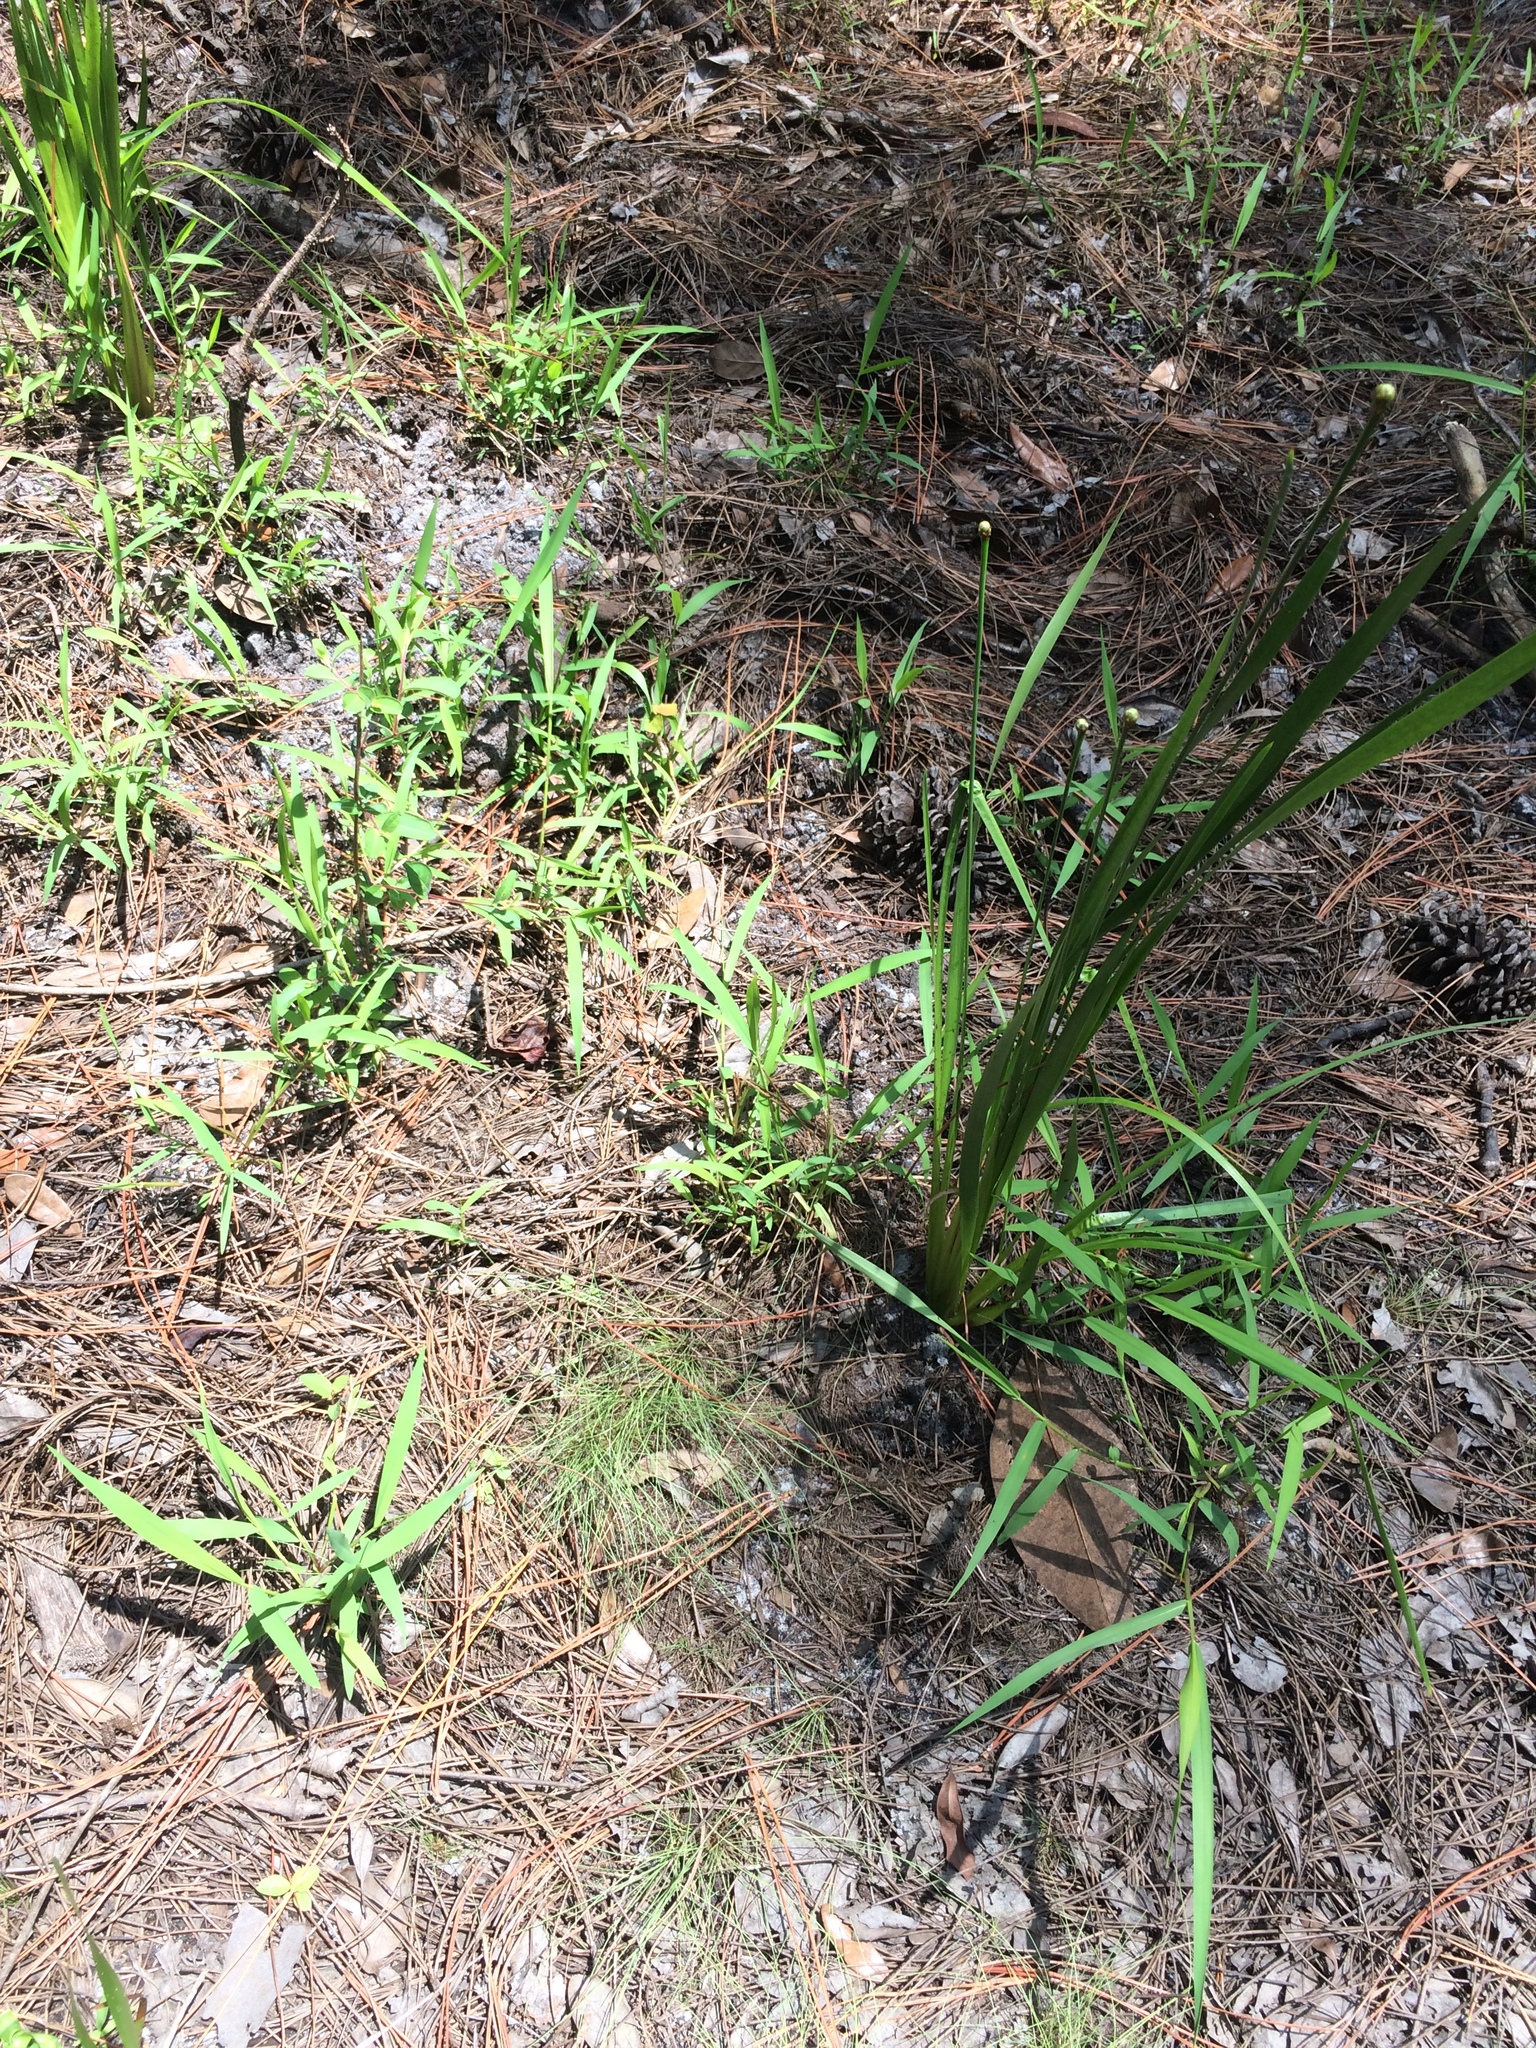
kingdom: Plantae
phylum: Tracheophyta
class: Liliopsida
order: Poales
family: Xyridaceae
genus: Xyris
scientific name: Xyris difformis
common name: Bog yellow-eyed-grass
